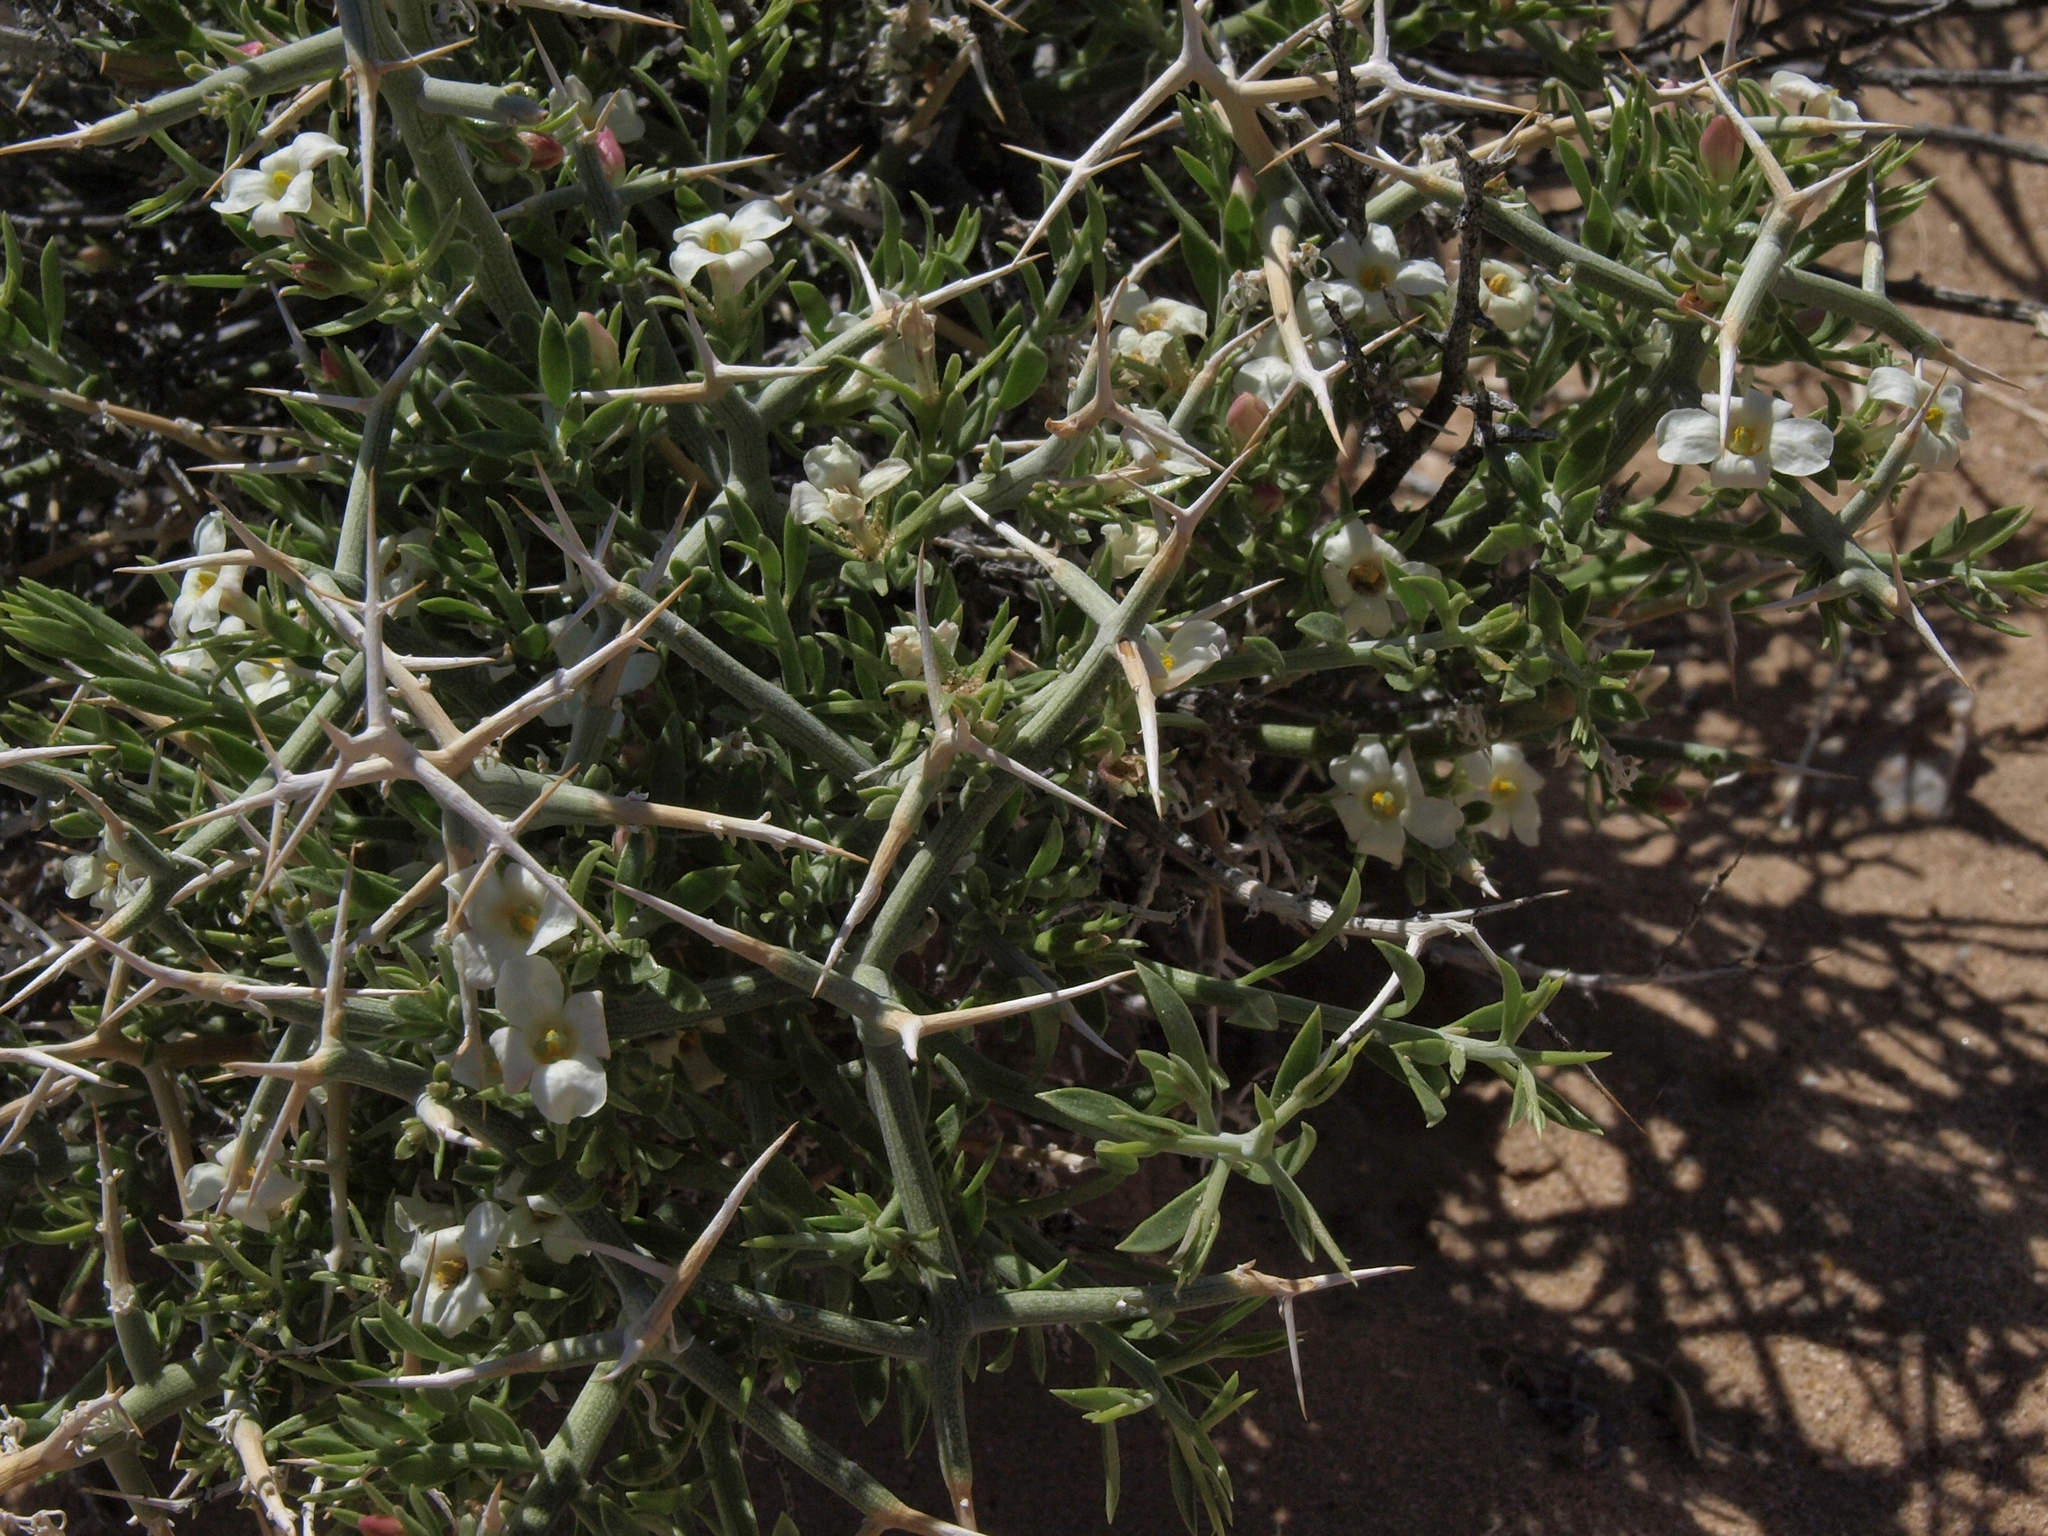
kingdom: Plantae
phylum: Tracheophyta
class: Magnoliopsida
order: Lamiales
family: Oleaceae
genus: Menodora
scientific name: Menodora spinescens
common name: Spiny menodora
